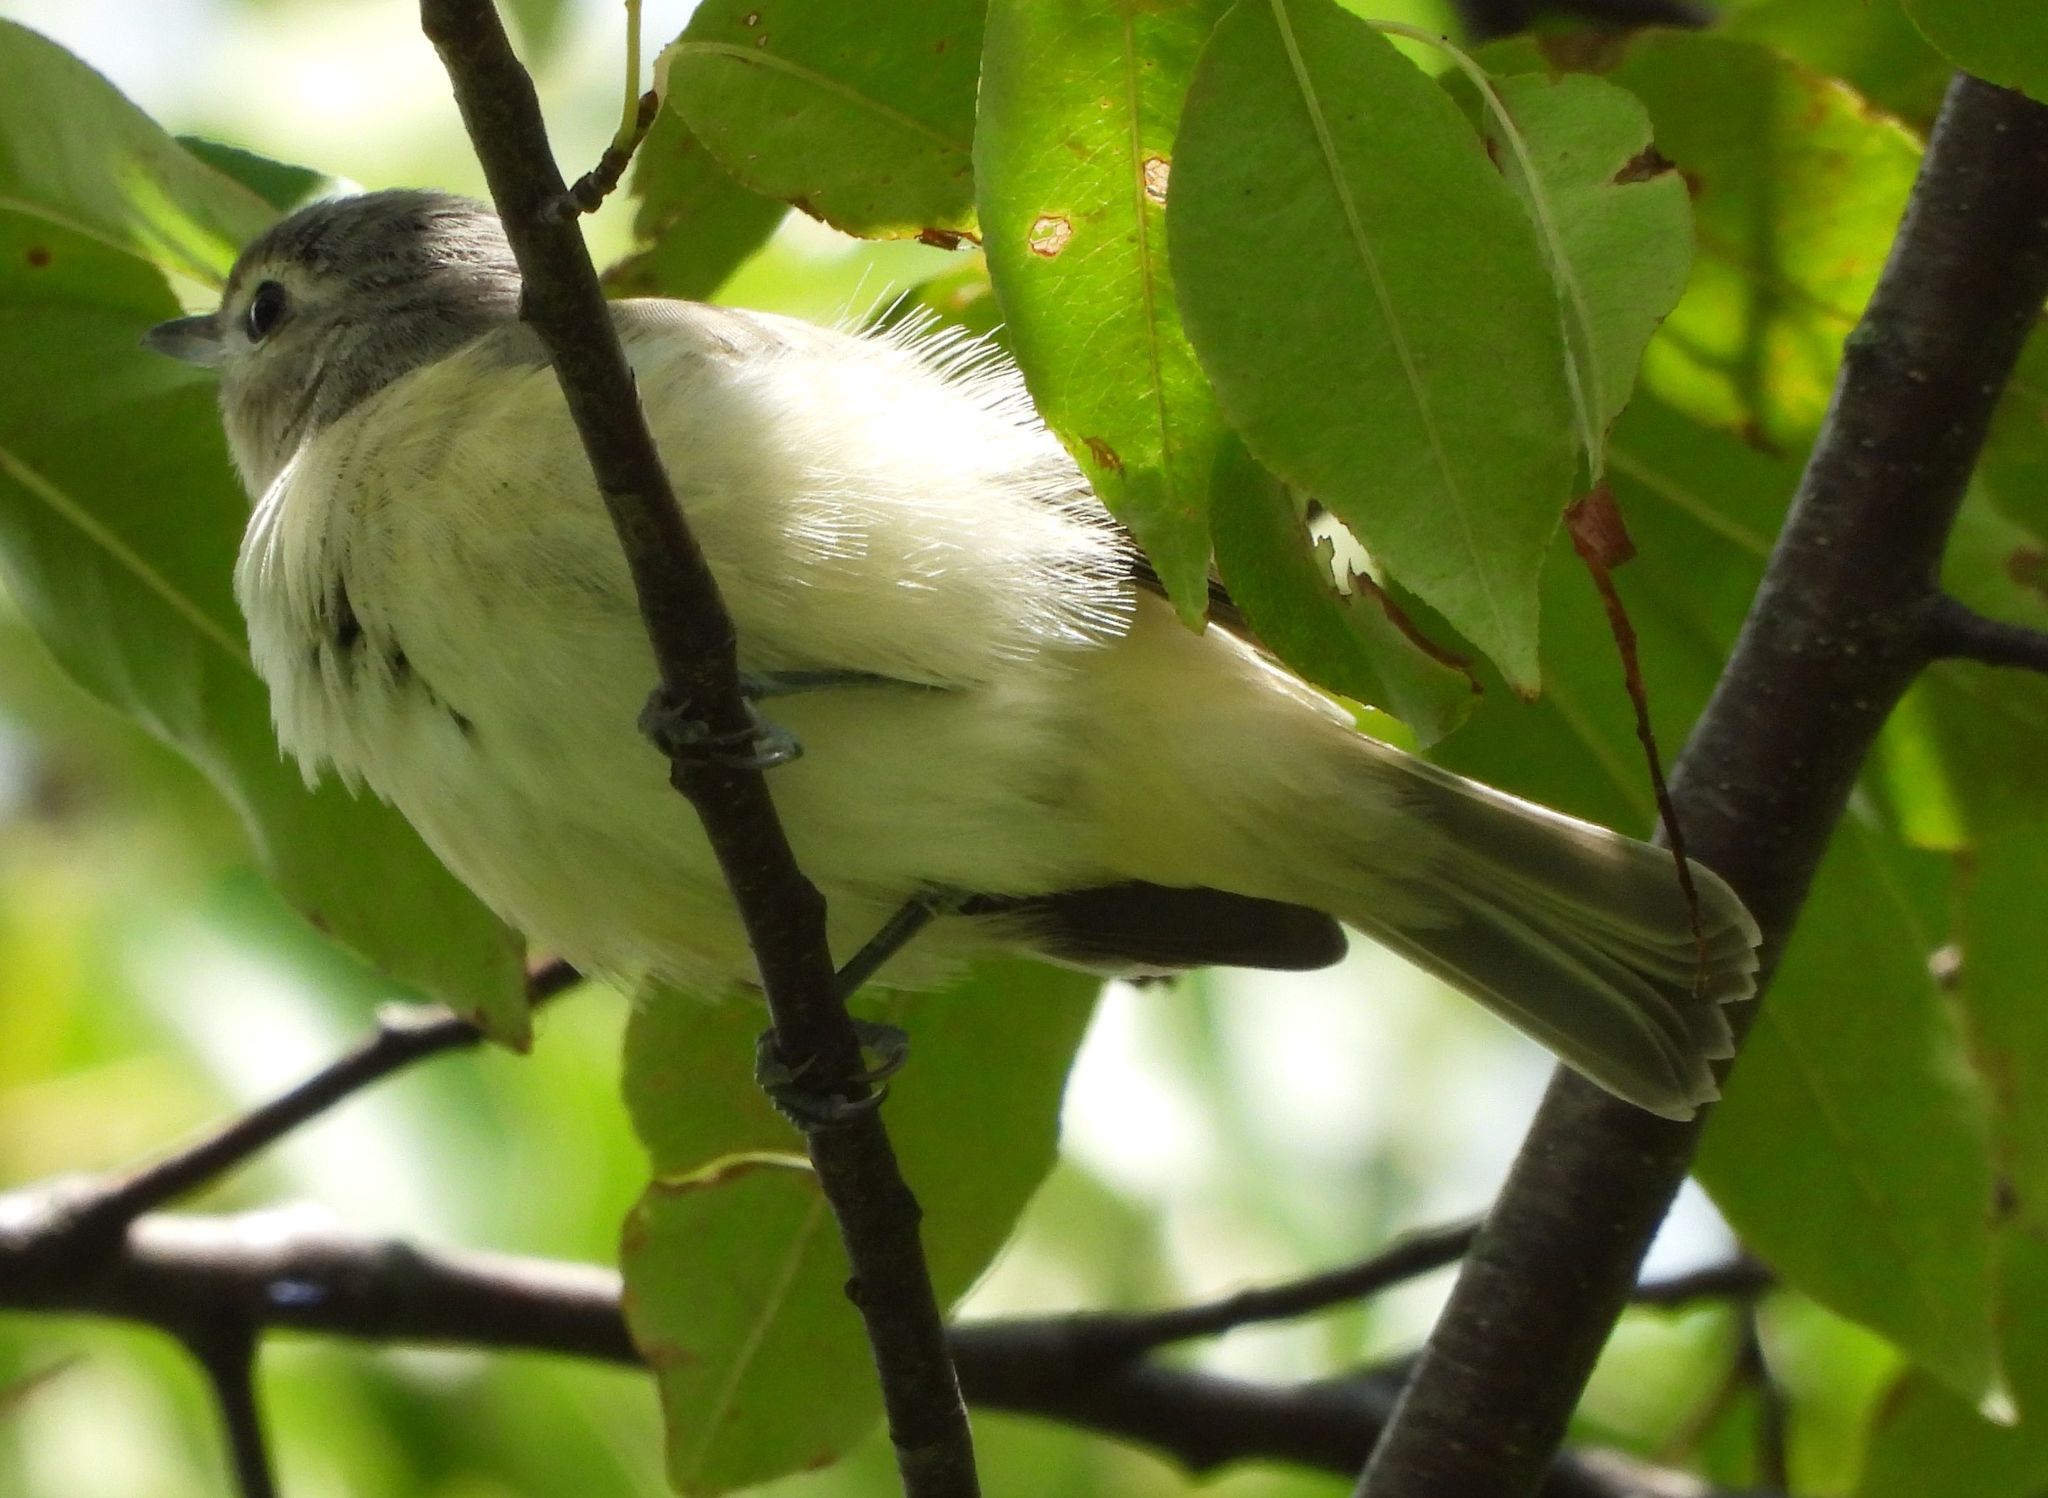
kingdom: Animalia
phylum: Chordata
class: Aves
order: Passeriformes
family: Vireonidae
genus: Vireo
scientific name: Vireo gilvus
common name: Warbling vireo
